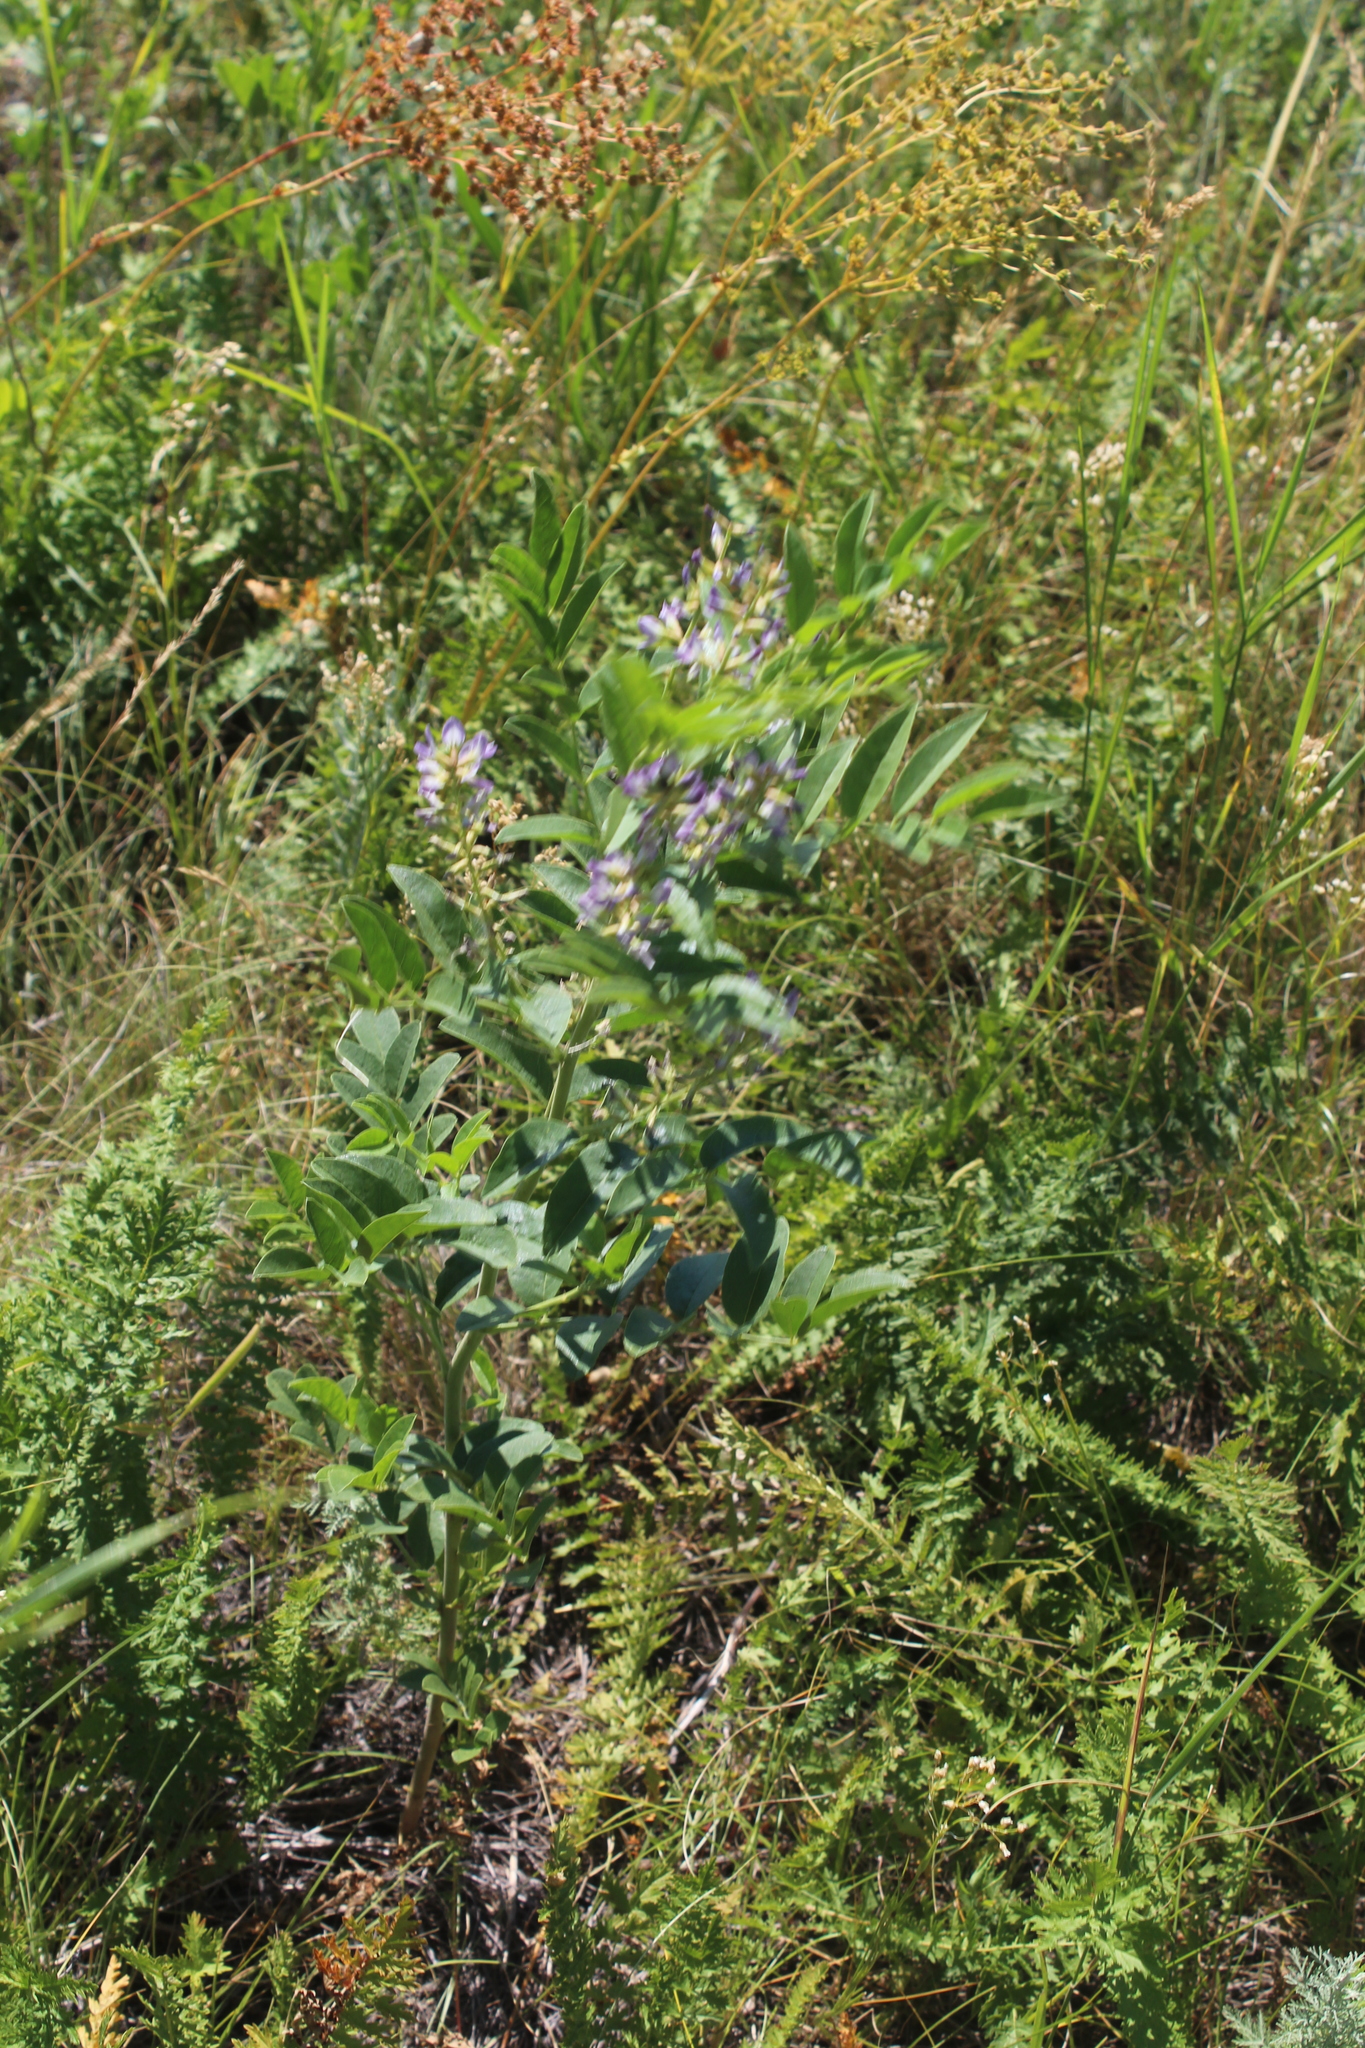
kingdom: Plantae
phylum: Tracheophyta
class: Magnoliopsida
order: Fabales
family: Fabaceae
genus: Glycyrrhiza
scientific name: Glycyrrhiza glabra
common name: Liquorice
